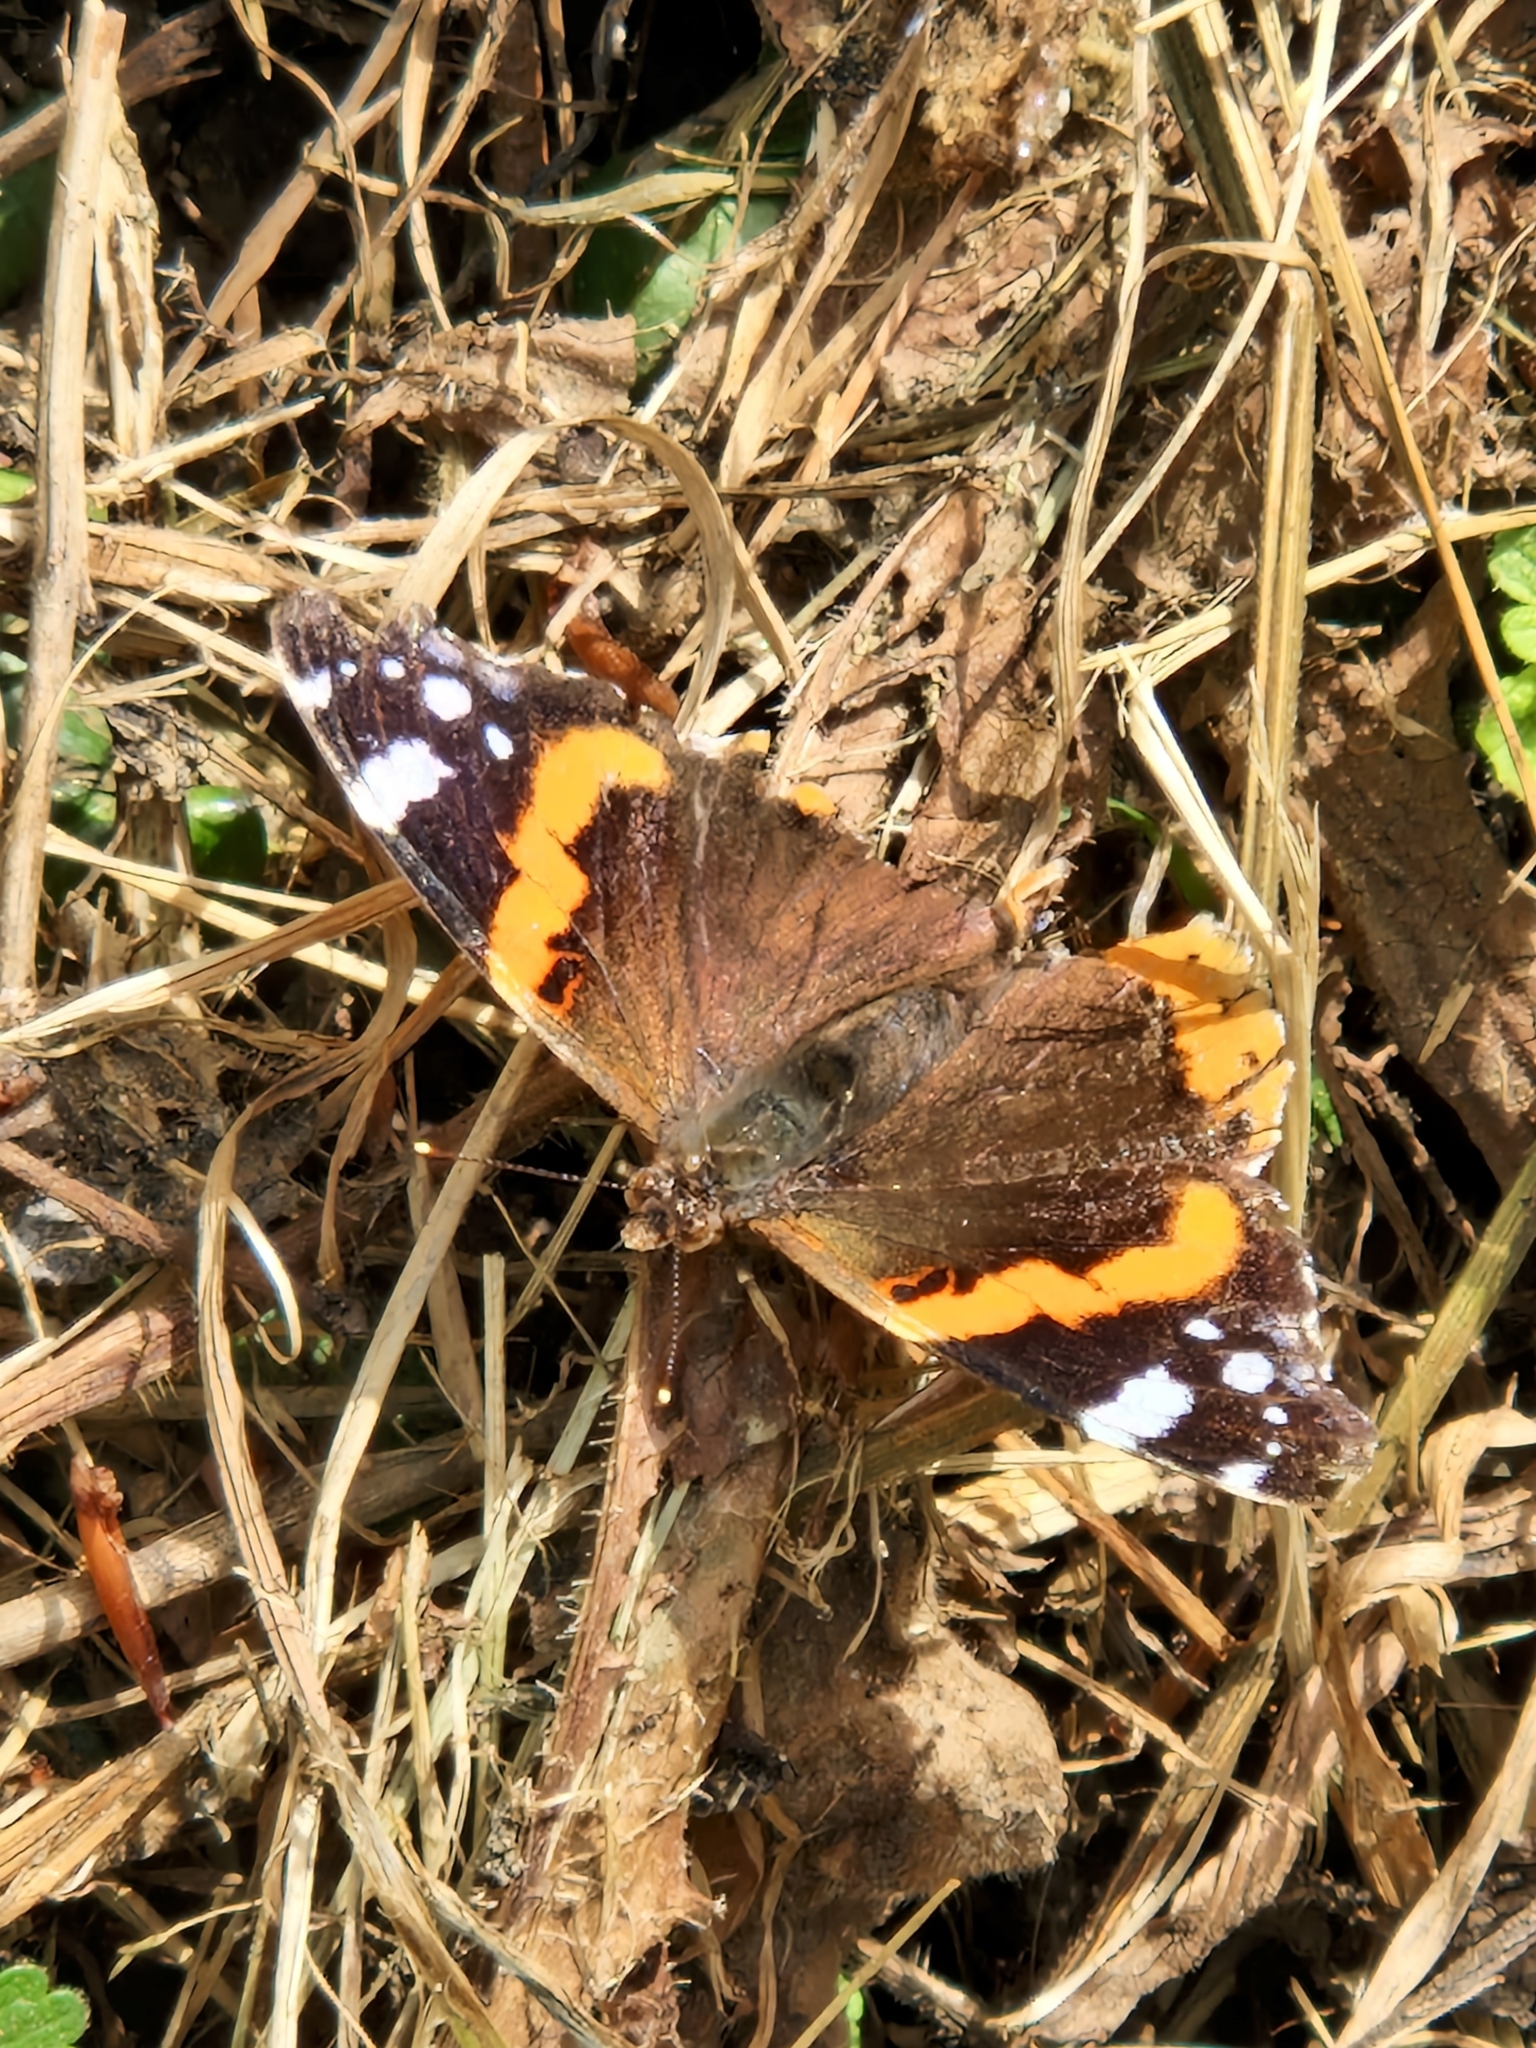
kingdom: Animalia
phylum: Arthropoda
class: Insecta
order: Lepidoptera
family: Nymphalidae
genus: Vanessa
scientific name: Vanessa atalanta
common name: Red admiral
